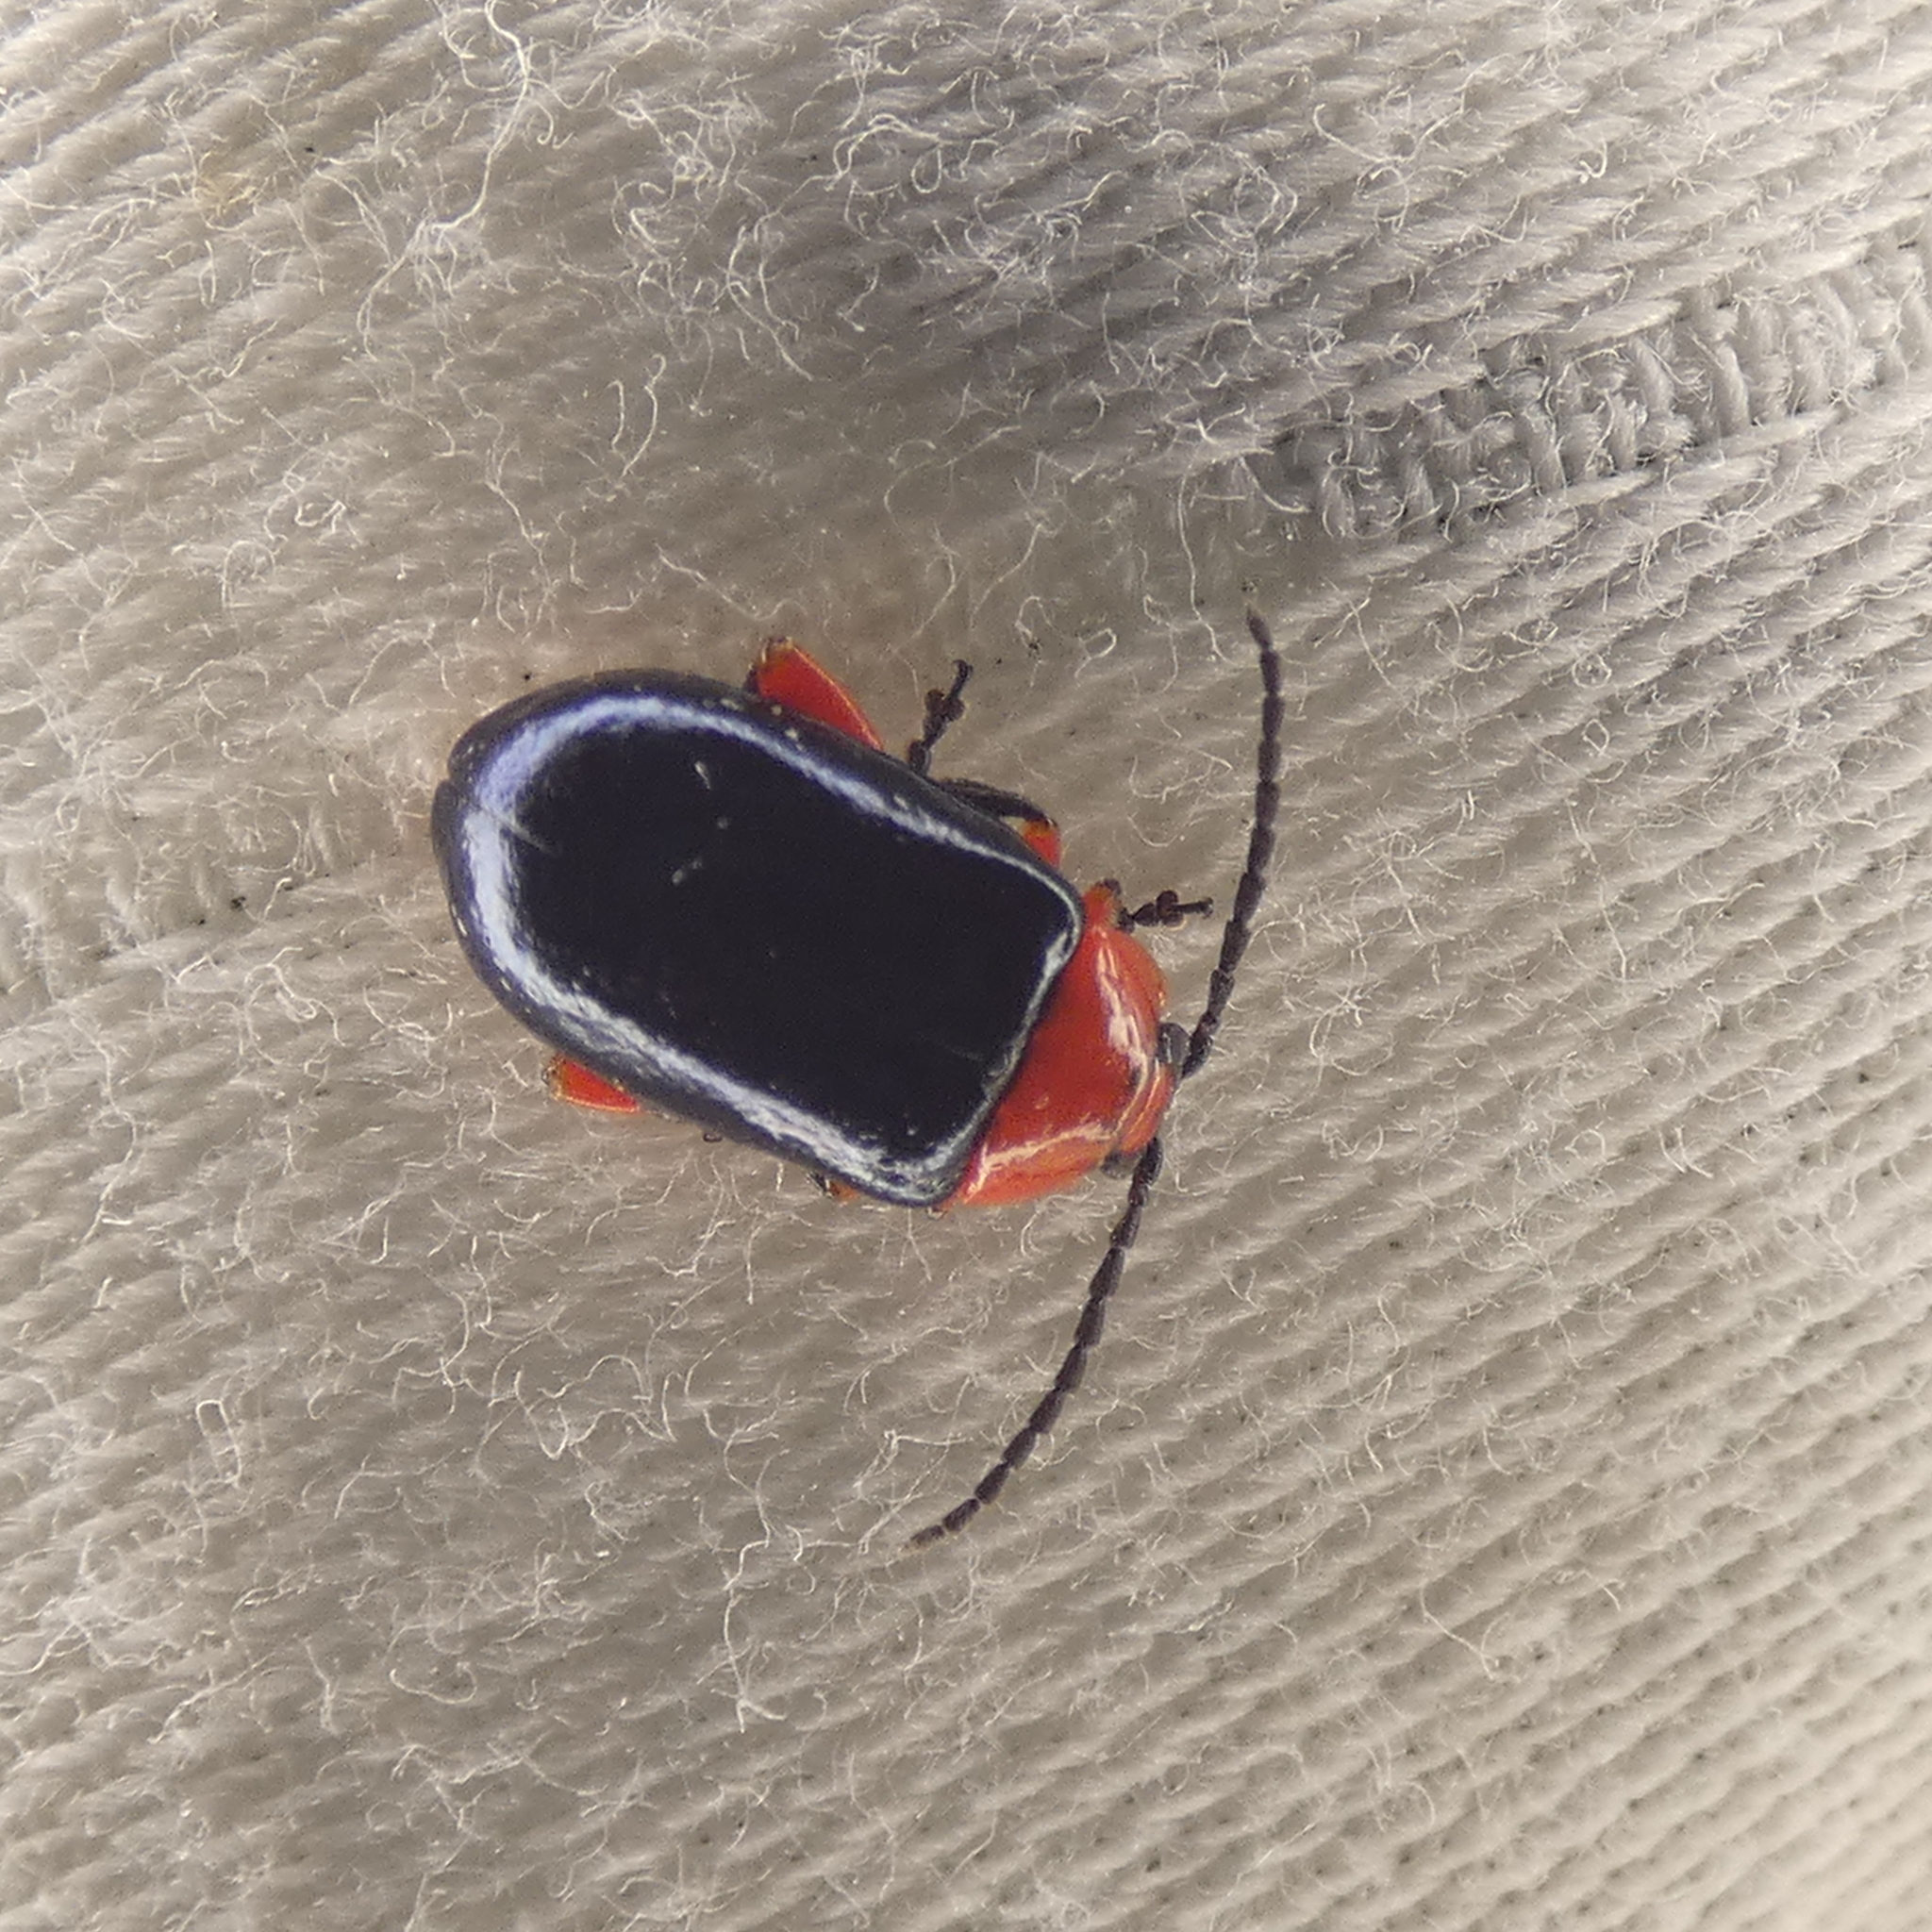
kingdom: Animalia
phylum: Arthropoda
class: Insecta
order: Coleoptera
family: Chrysomelidae
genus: Asphaera
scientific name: Asphaera lustrans
